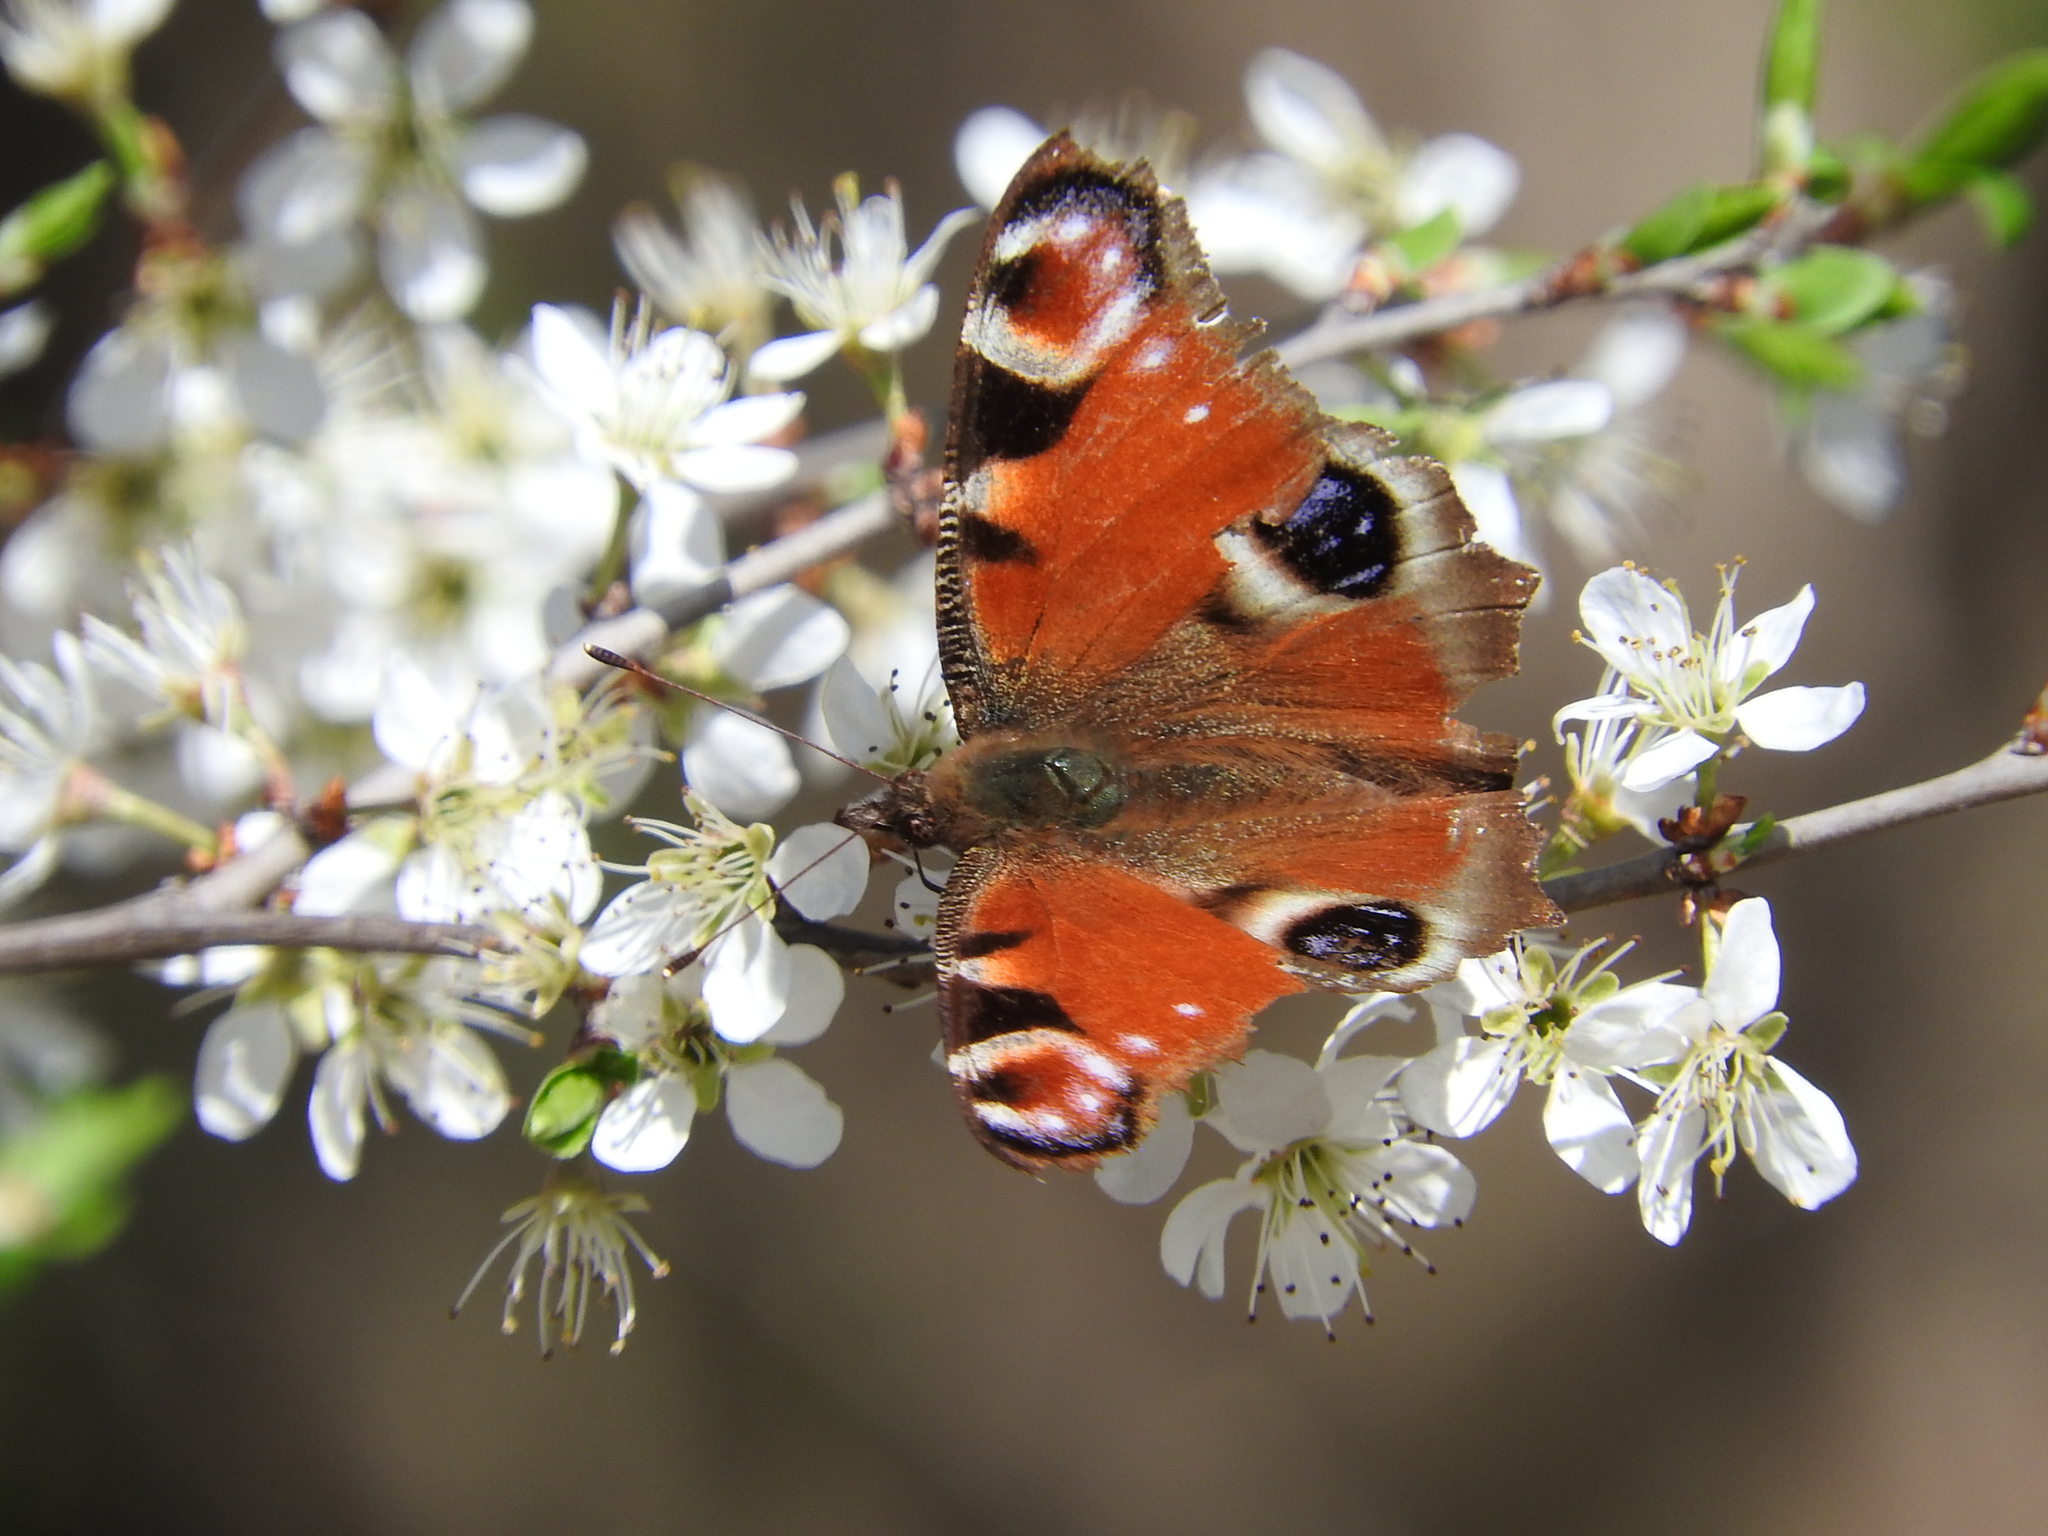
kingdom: Animalia
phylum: Arthropoda
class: Insecta
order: Lepidoptera
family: Nymphalidae
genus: Aglais
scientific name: Aglais io
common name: Peacock
